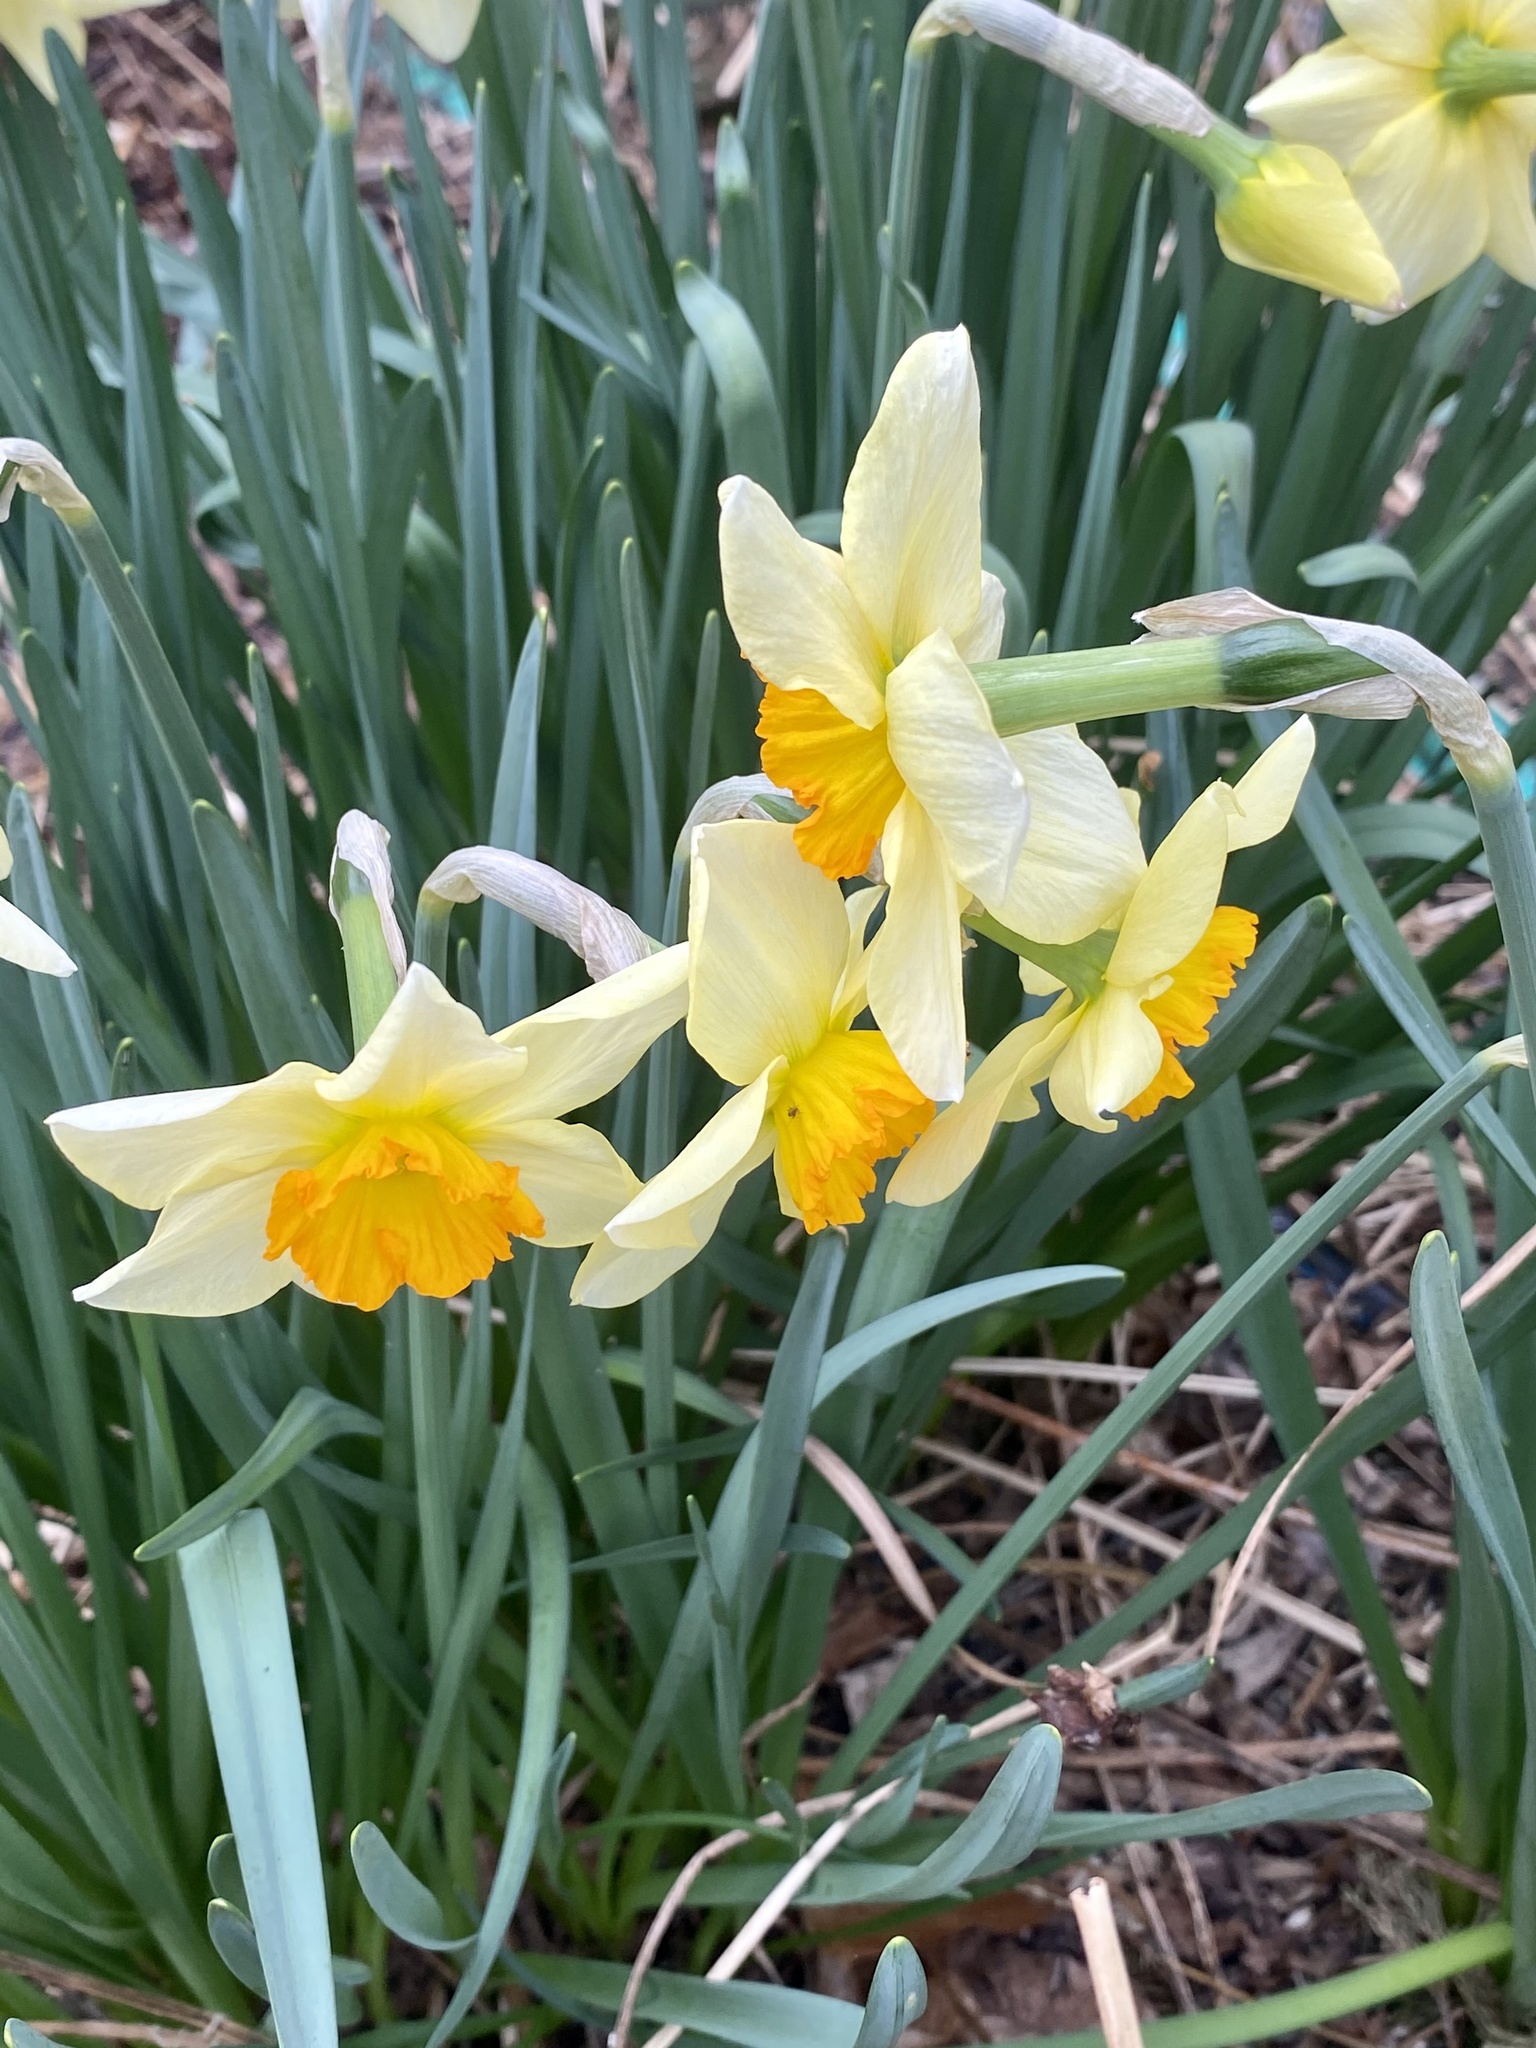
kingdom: Plantae
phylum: Tracheophyta
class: Liliopsida
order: Asparagales
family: Amaryllidaceae
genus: Narcissus
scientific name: Narcissus
